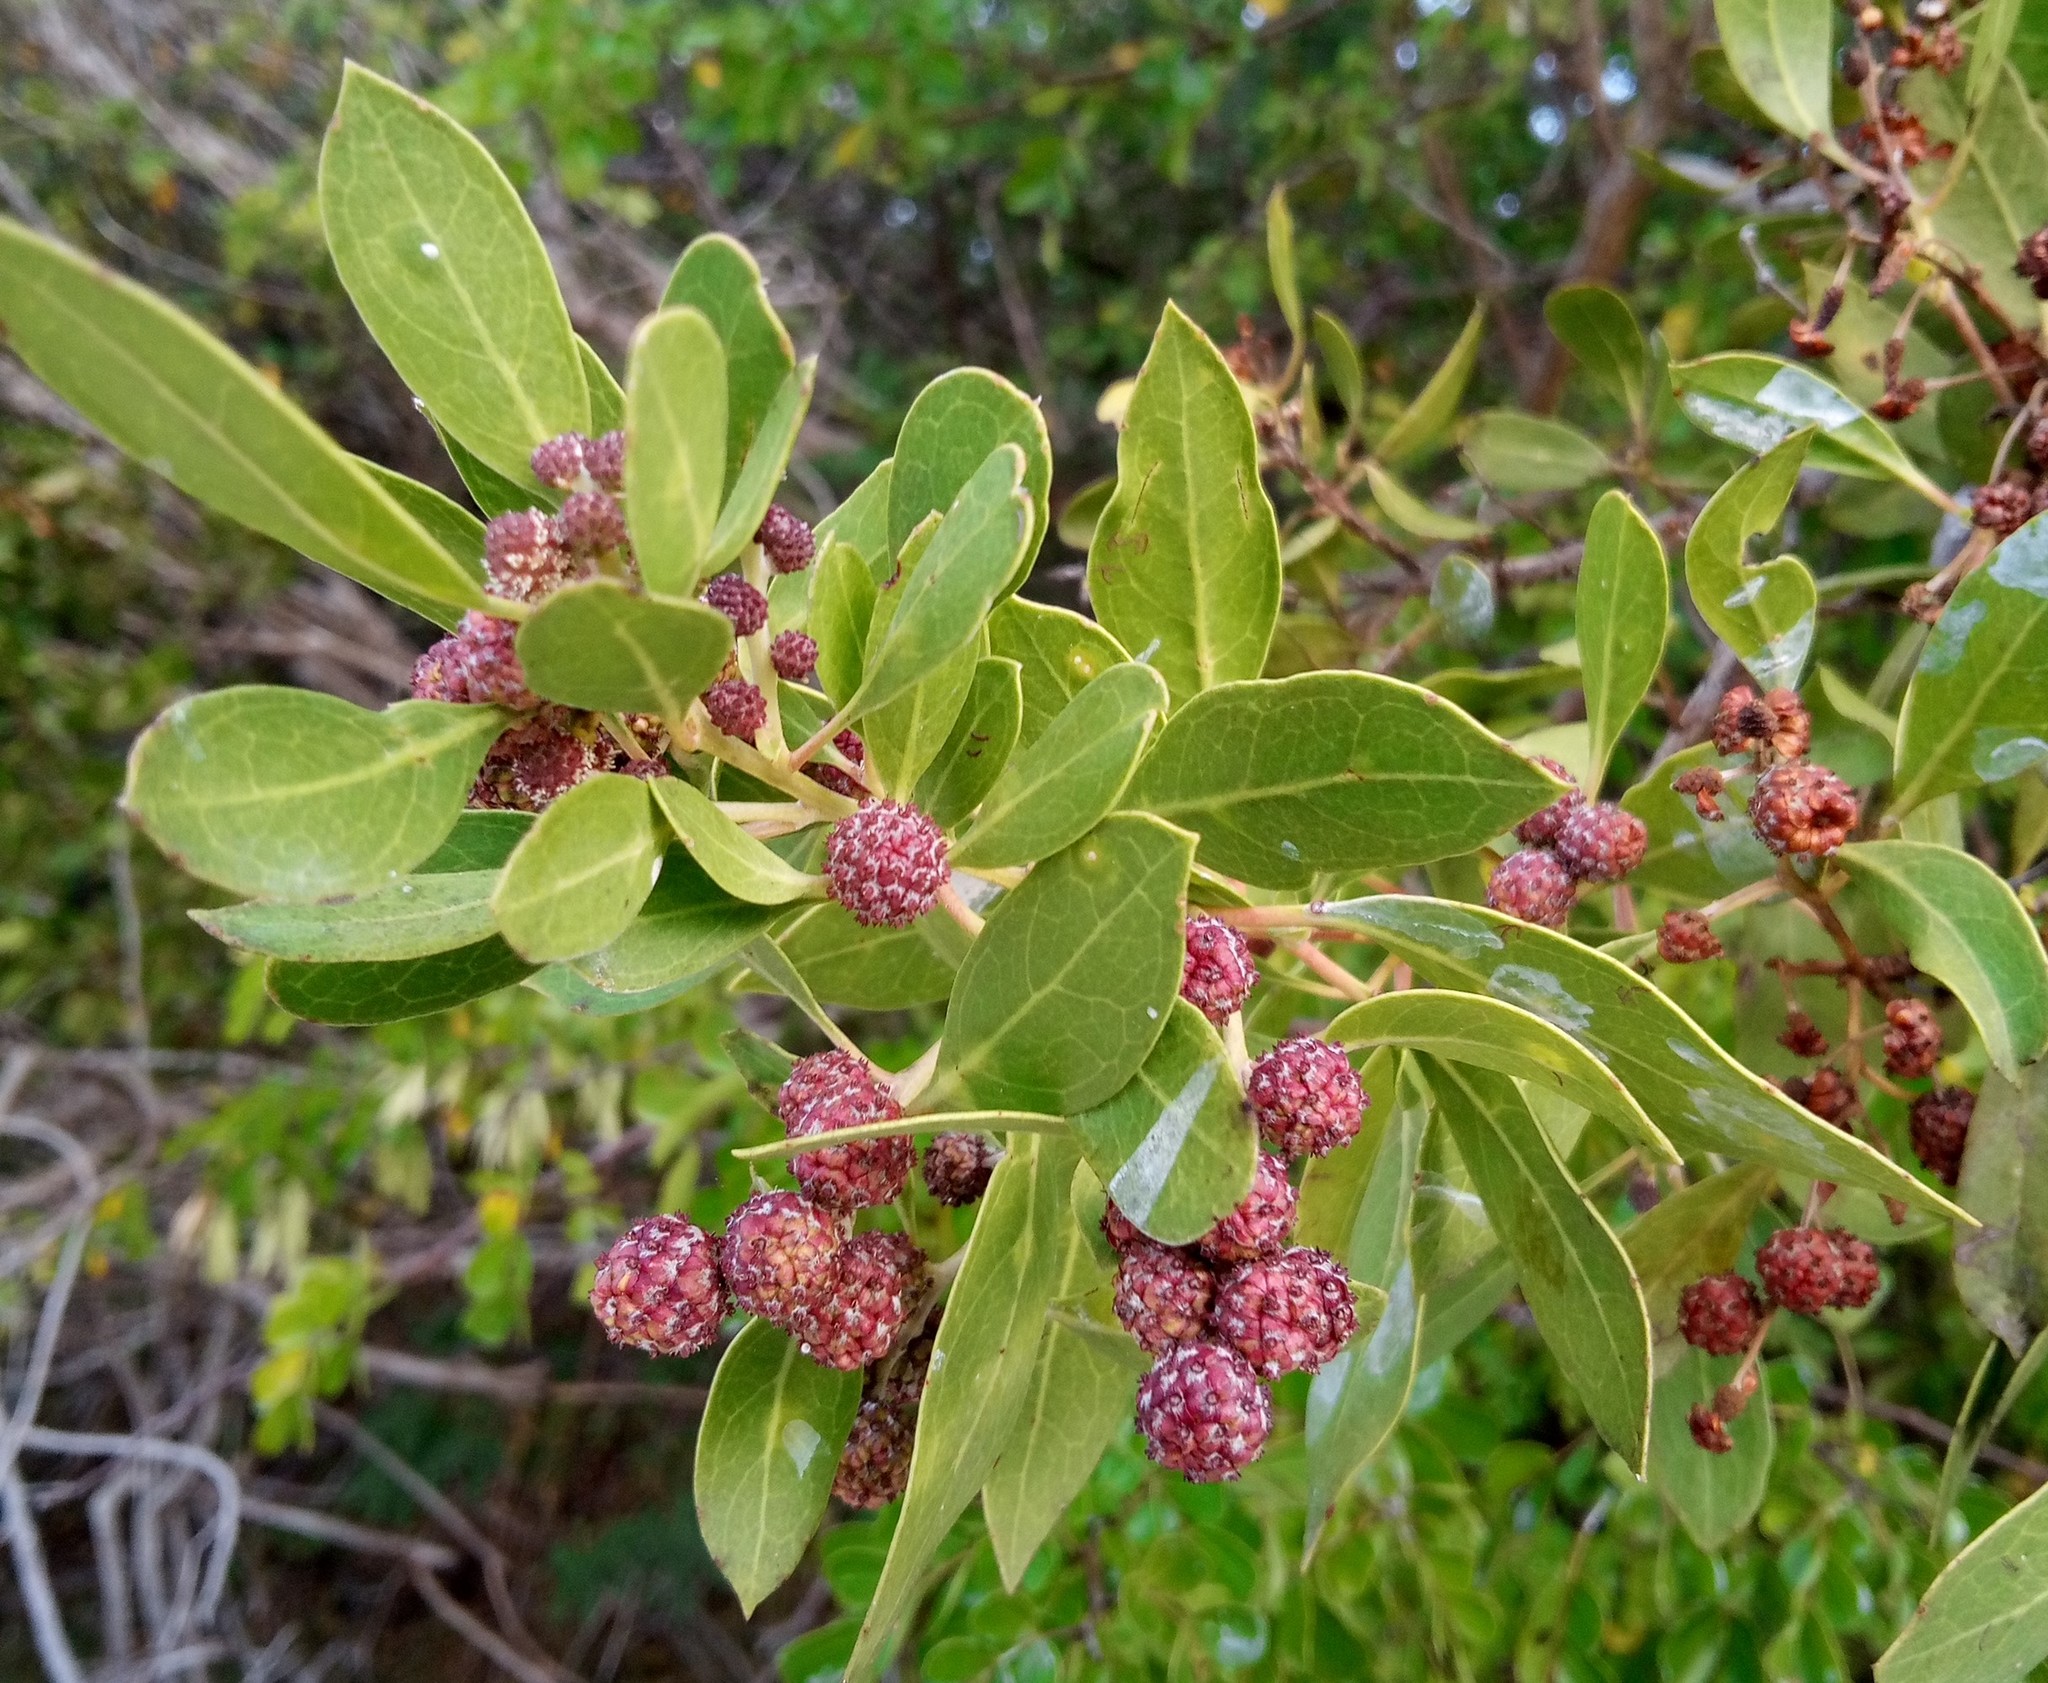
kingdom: Plantae
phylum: Tracheophyta
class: Magnoliopsida
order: Myrtales
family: Combretaceae
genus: Conocarpus
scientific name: Conocarpus erectus
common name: Button mangrove
